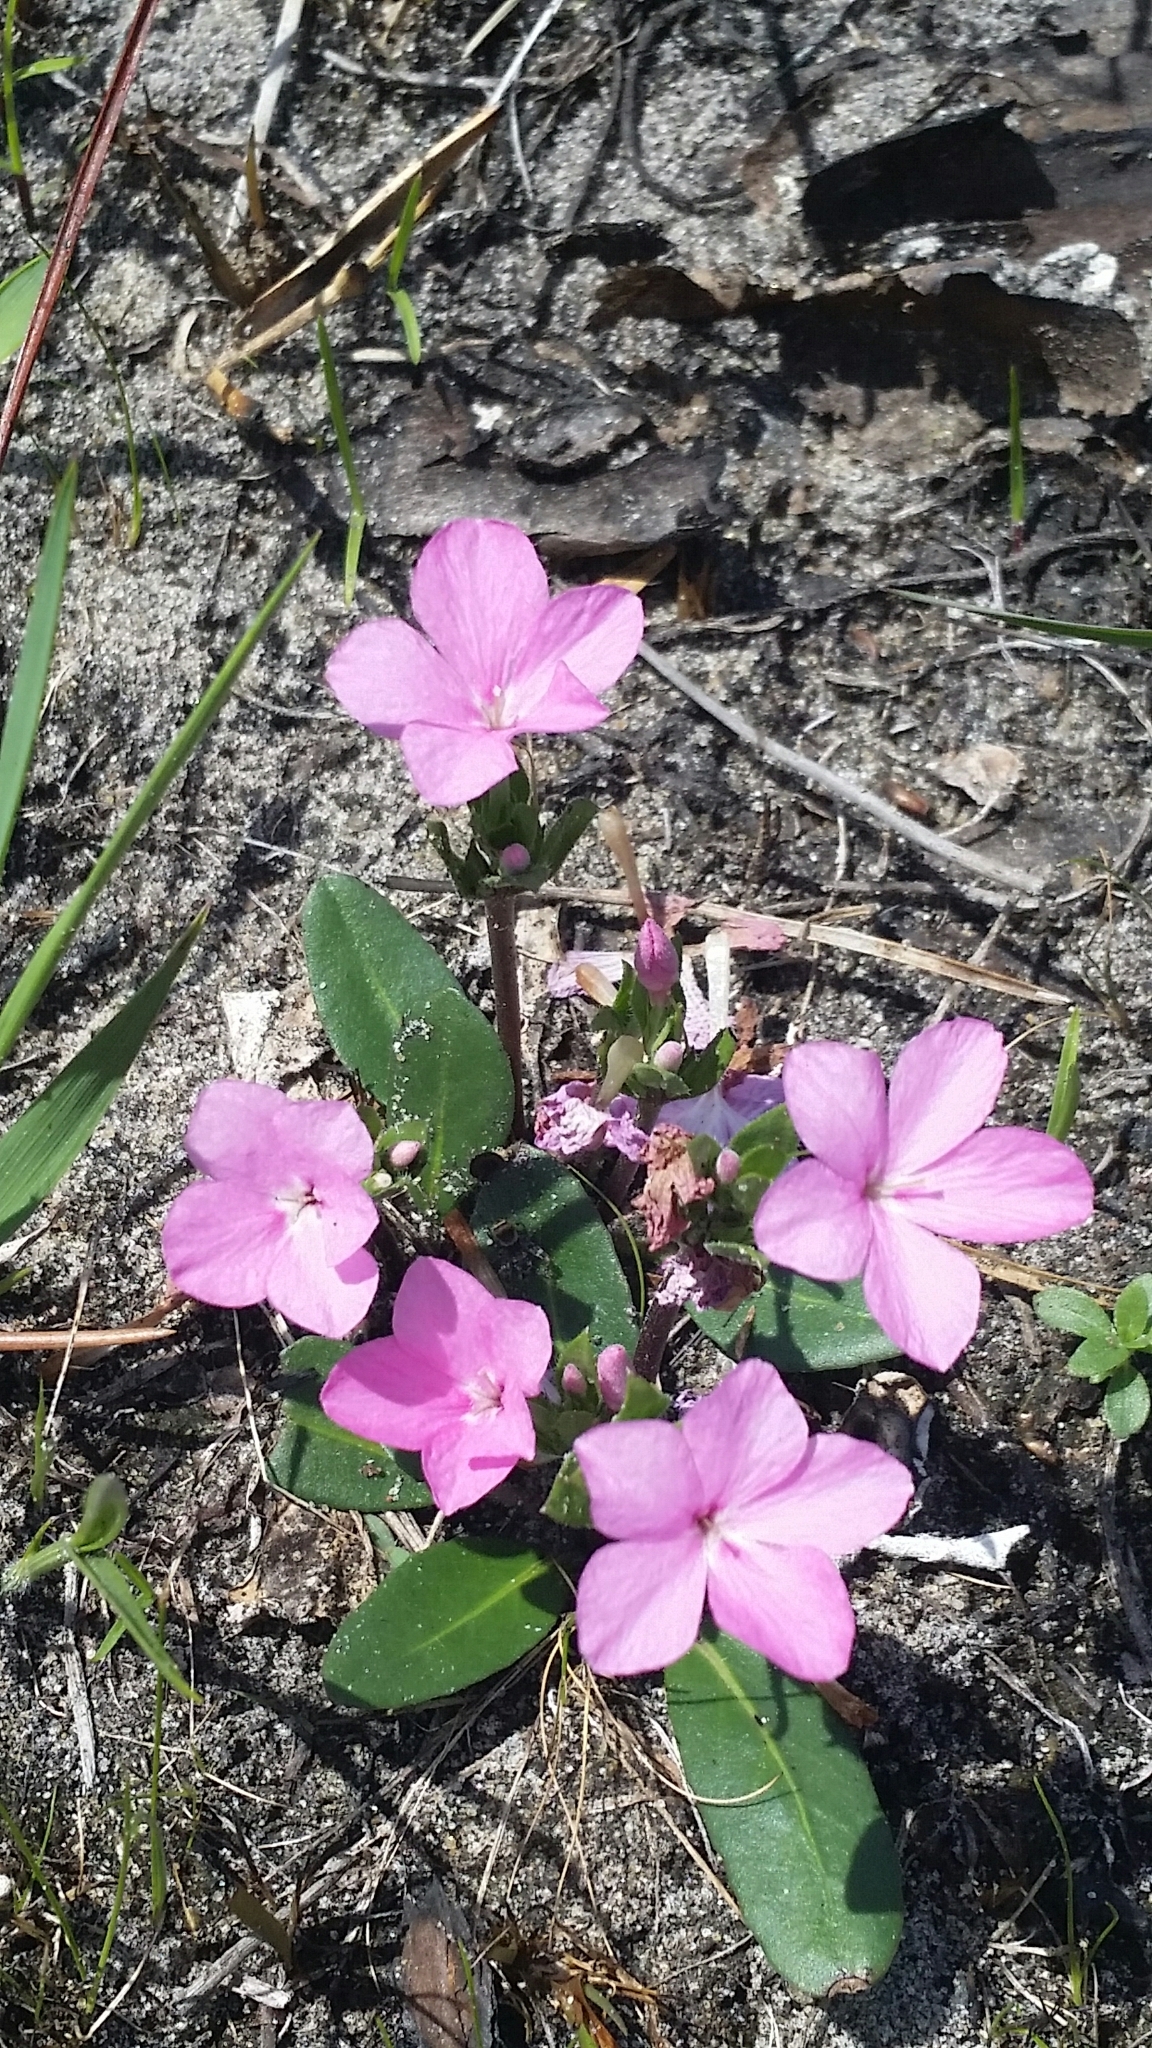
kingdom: Plantae
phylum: Tracheophyta
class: Magnoliopsida
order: Lamiales
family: Acanthaceae
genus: Stenandrium
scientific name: Stenandrium dulce
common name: Pinklet
